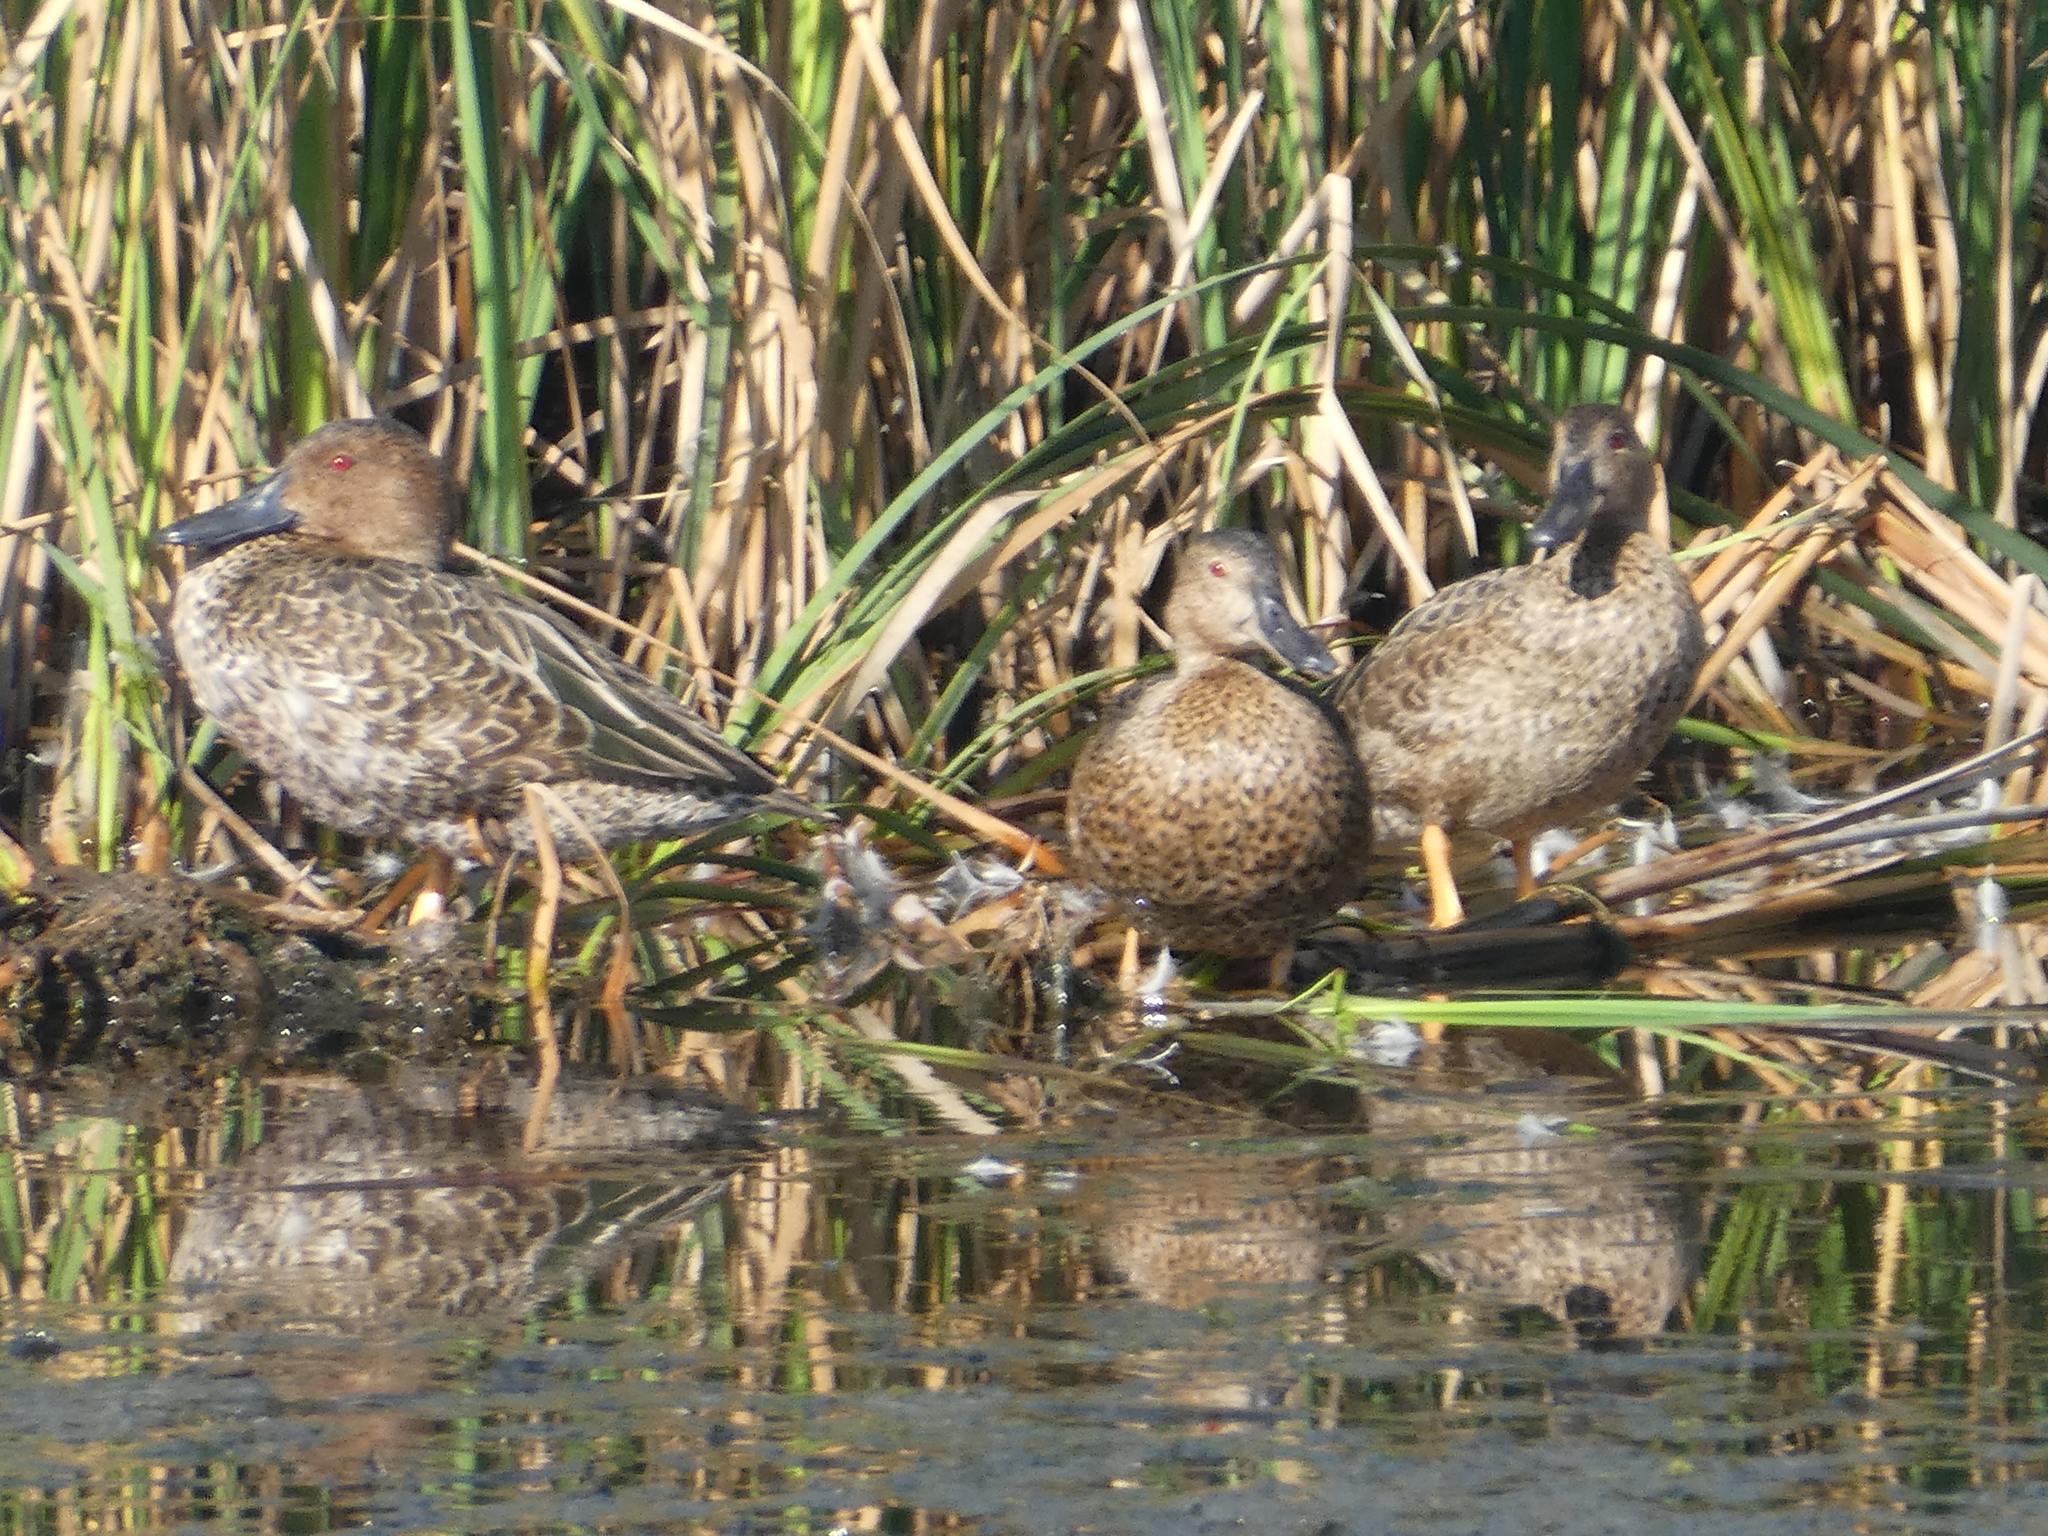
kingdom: Animalia
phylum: Chordata
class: Aves
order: Anseriformes
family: Anatidae
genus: Spatula
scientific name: Spatula cyanoptera
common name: Cinnamon teal
